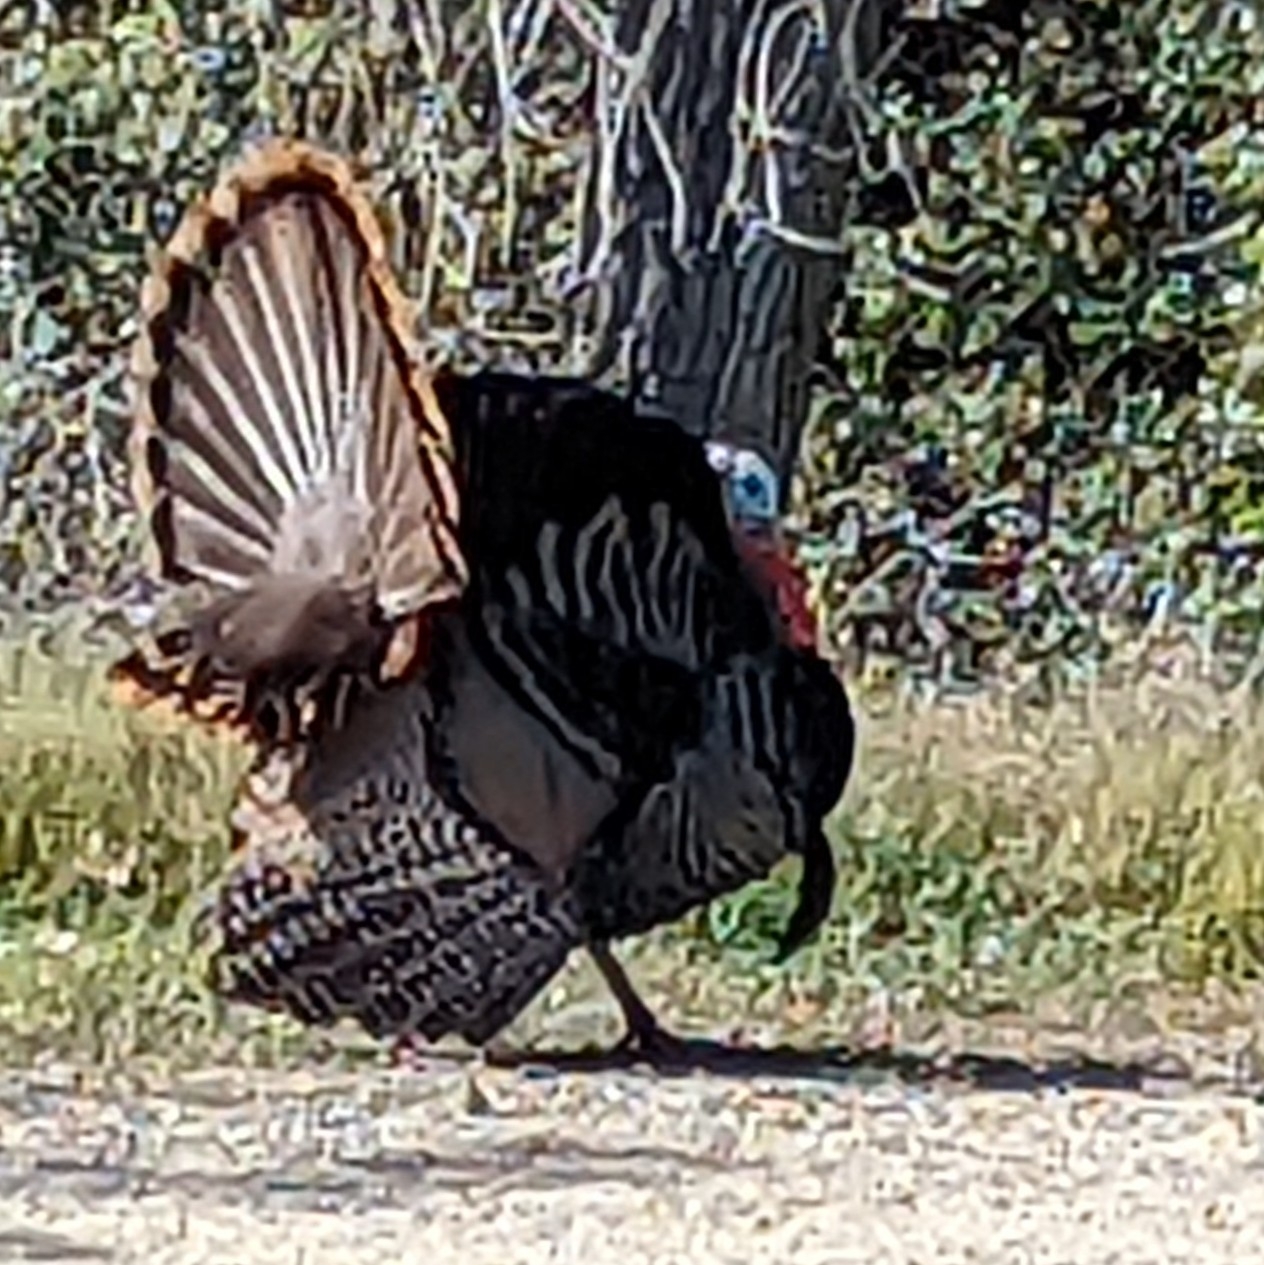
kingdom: Animalia
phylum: Chordata
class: Aves
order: Galliformes
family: Phasianidae
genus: Meleagris
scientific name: Meleagris gallopavo
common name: Wild turkey
